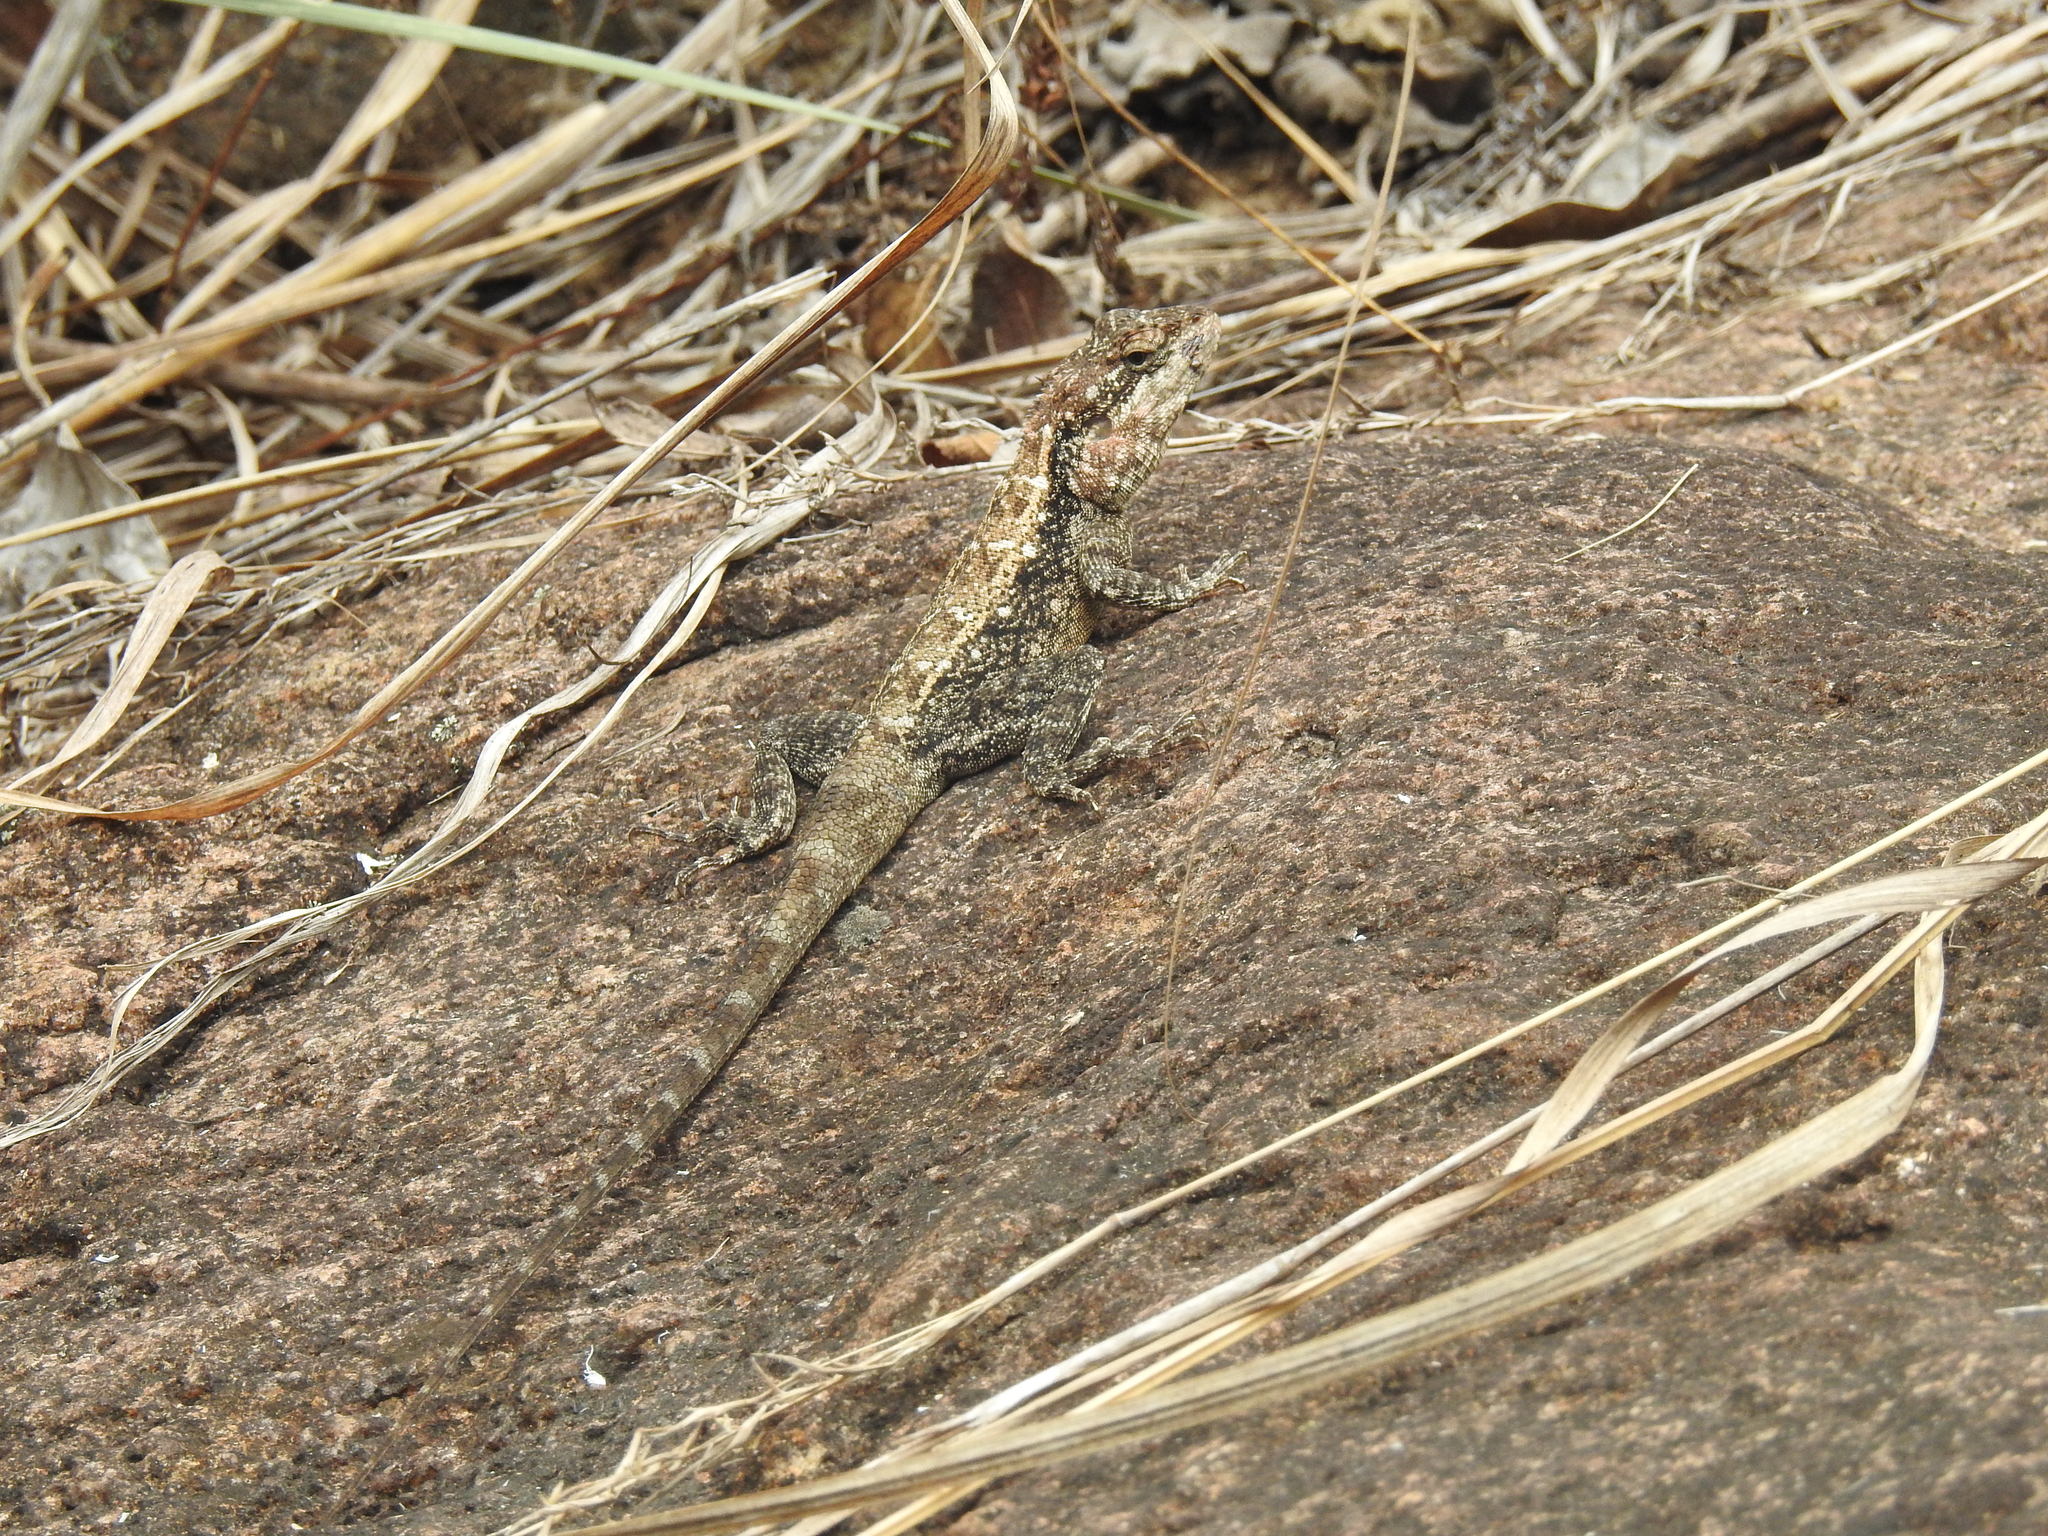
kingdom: Animalia
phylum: Chordata
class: Squamata
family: Agamidae
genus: Psammophilus
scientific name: Psammophilus dorsalis
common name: South indian rock agama
